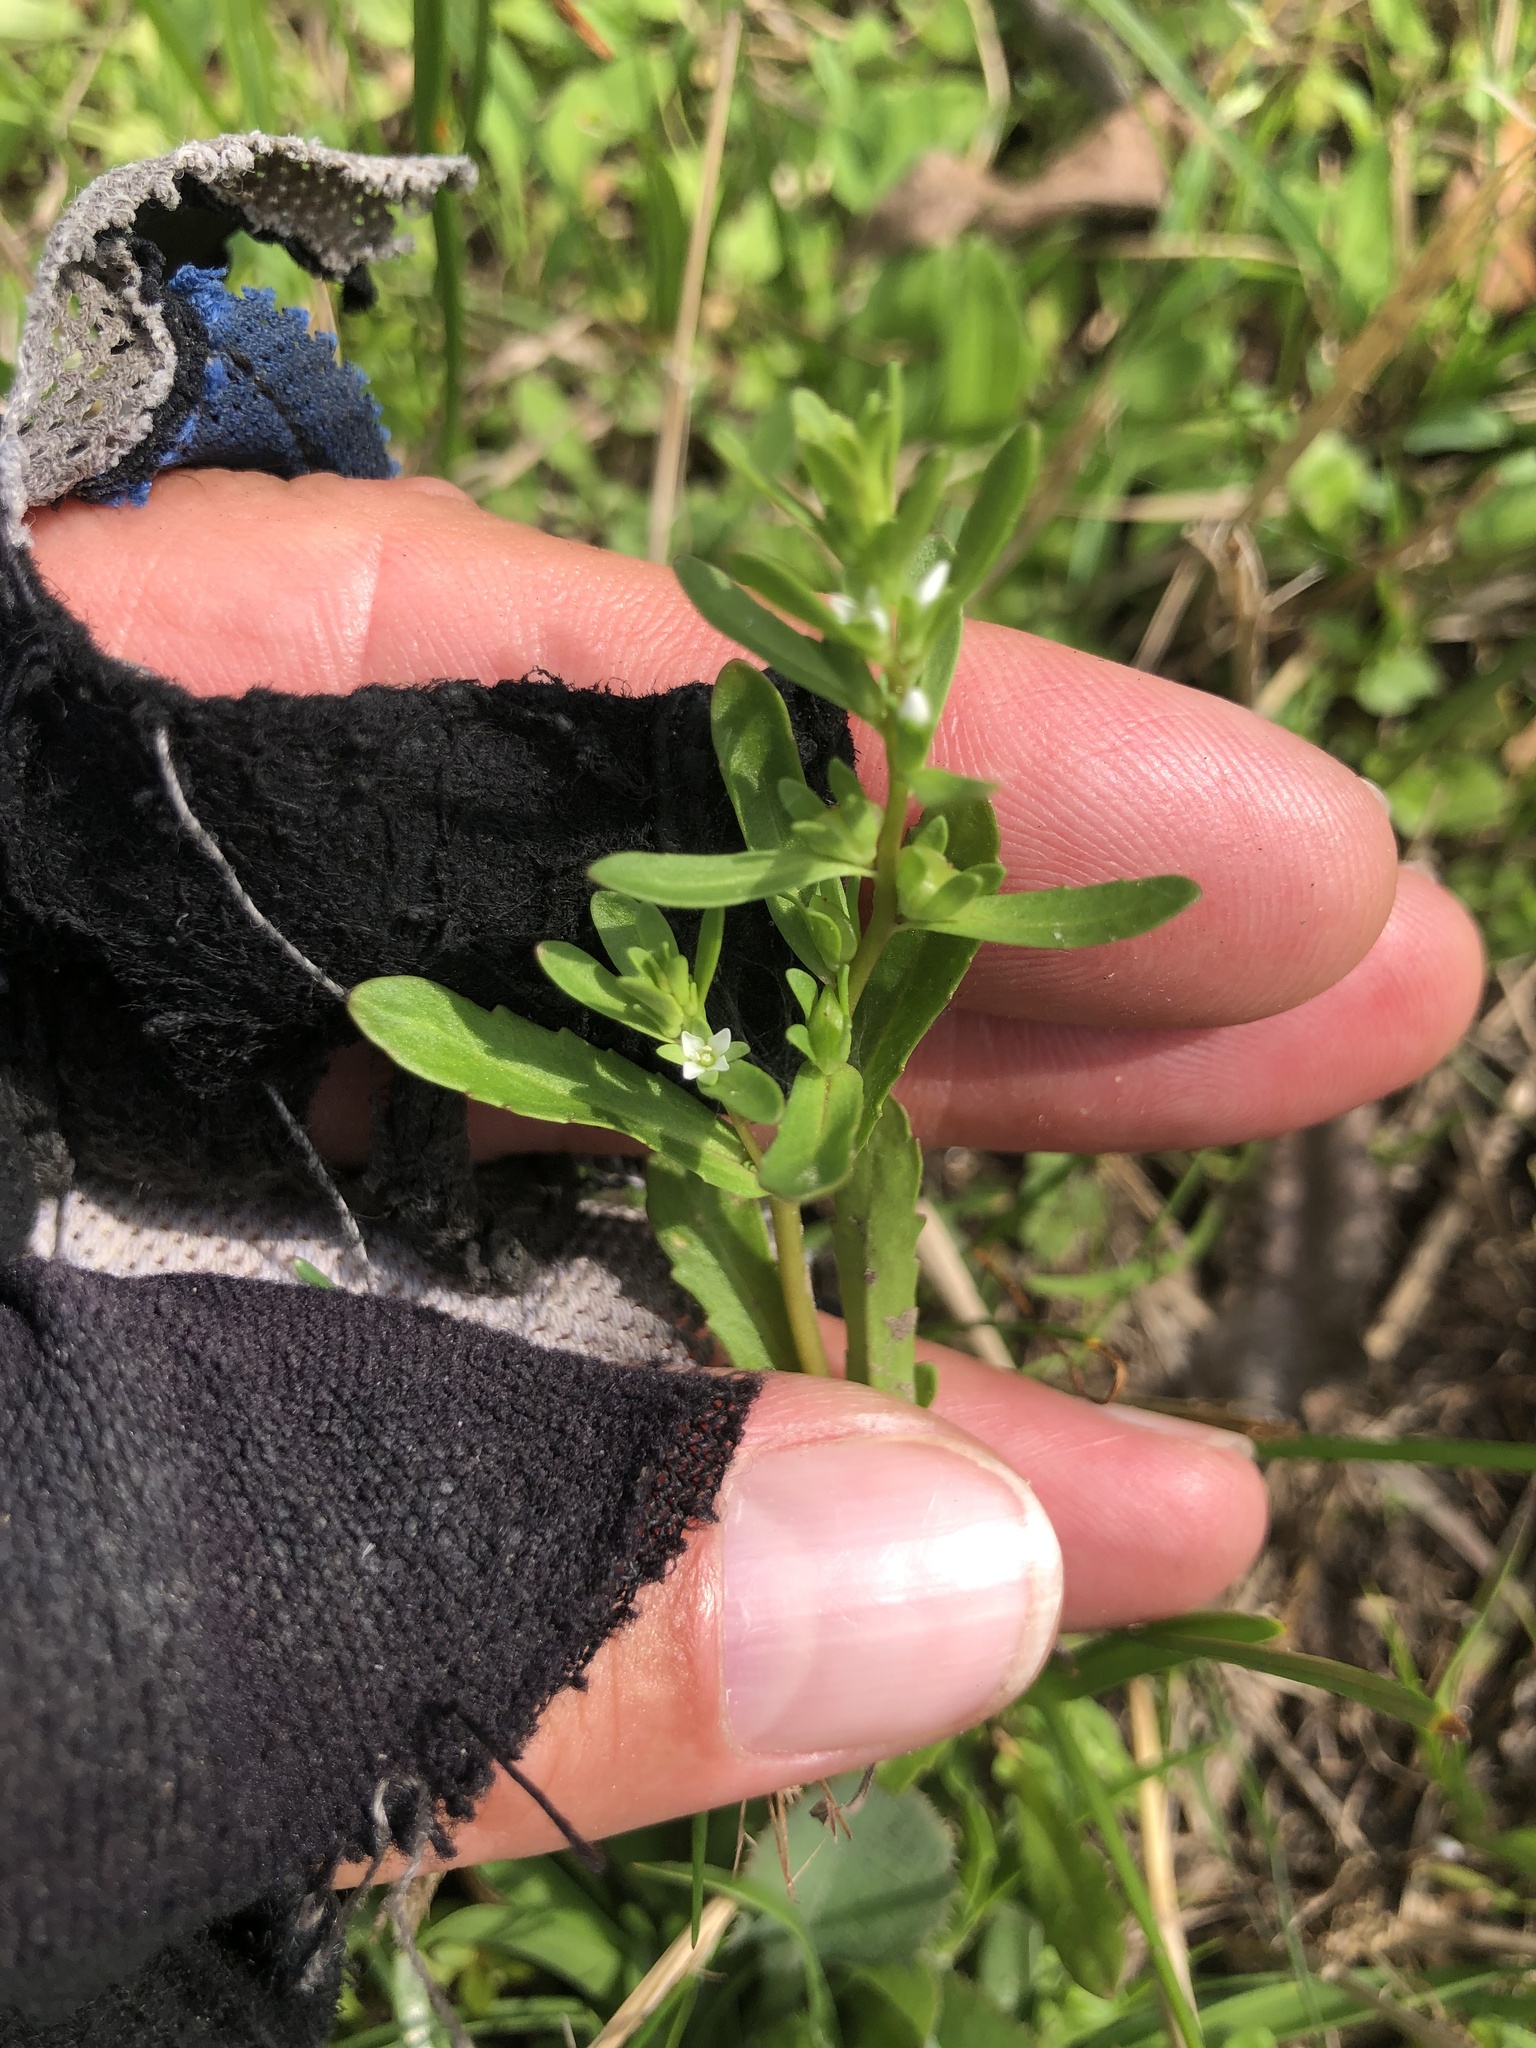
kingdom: Plantae
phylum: Tracheophyta
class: Magnoliopsida
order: Lamiales
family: Plantaginaceae
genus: Veronica
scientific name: Veronica peregrina
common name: Neckweed
